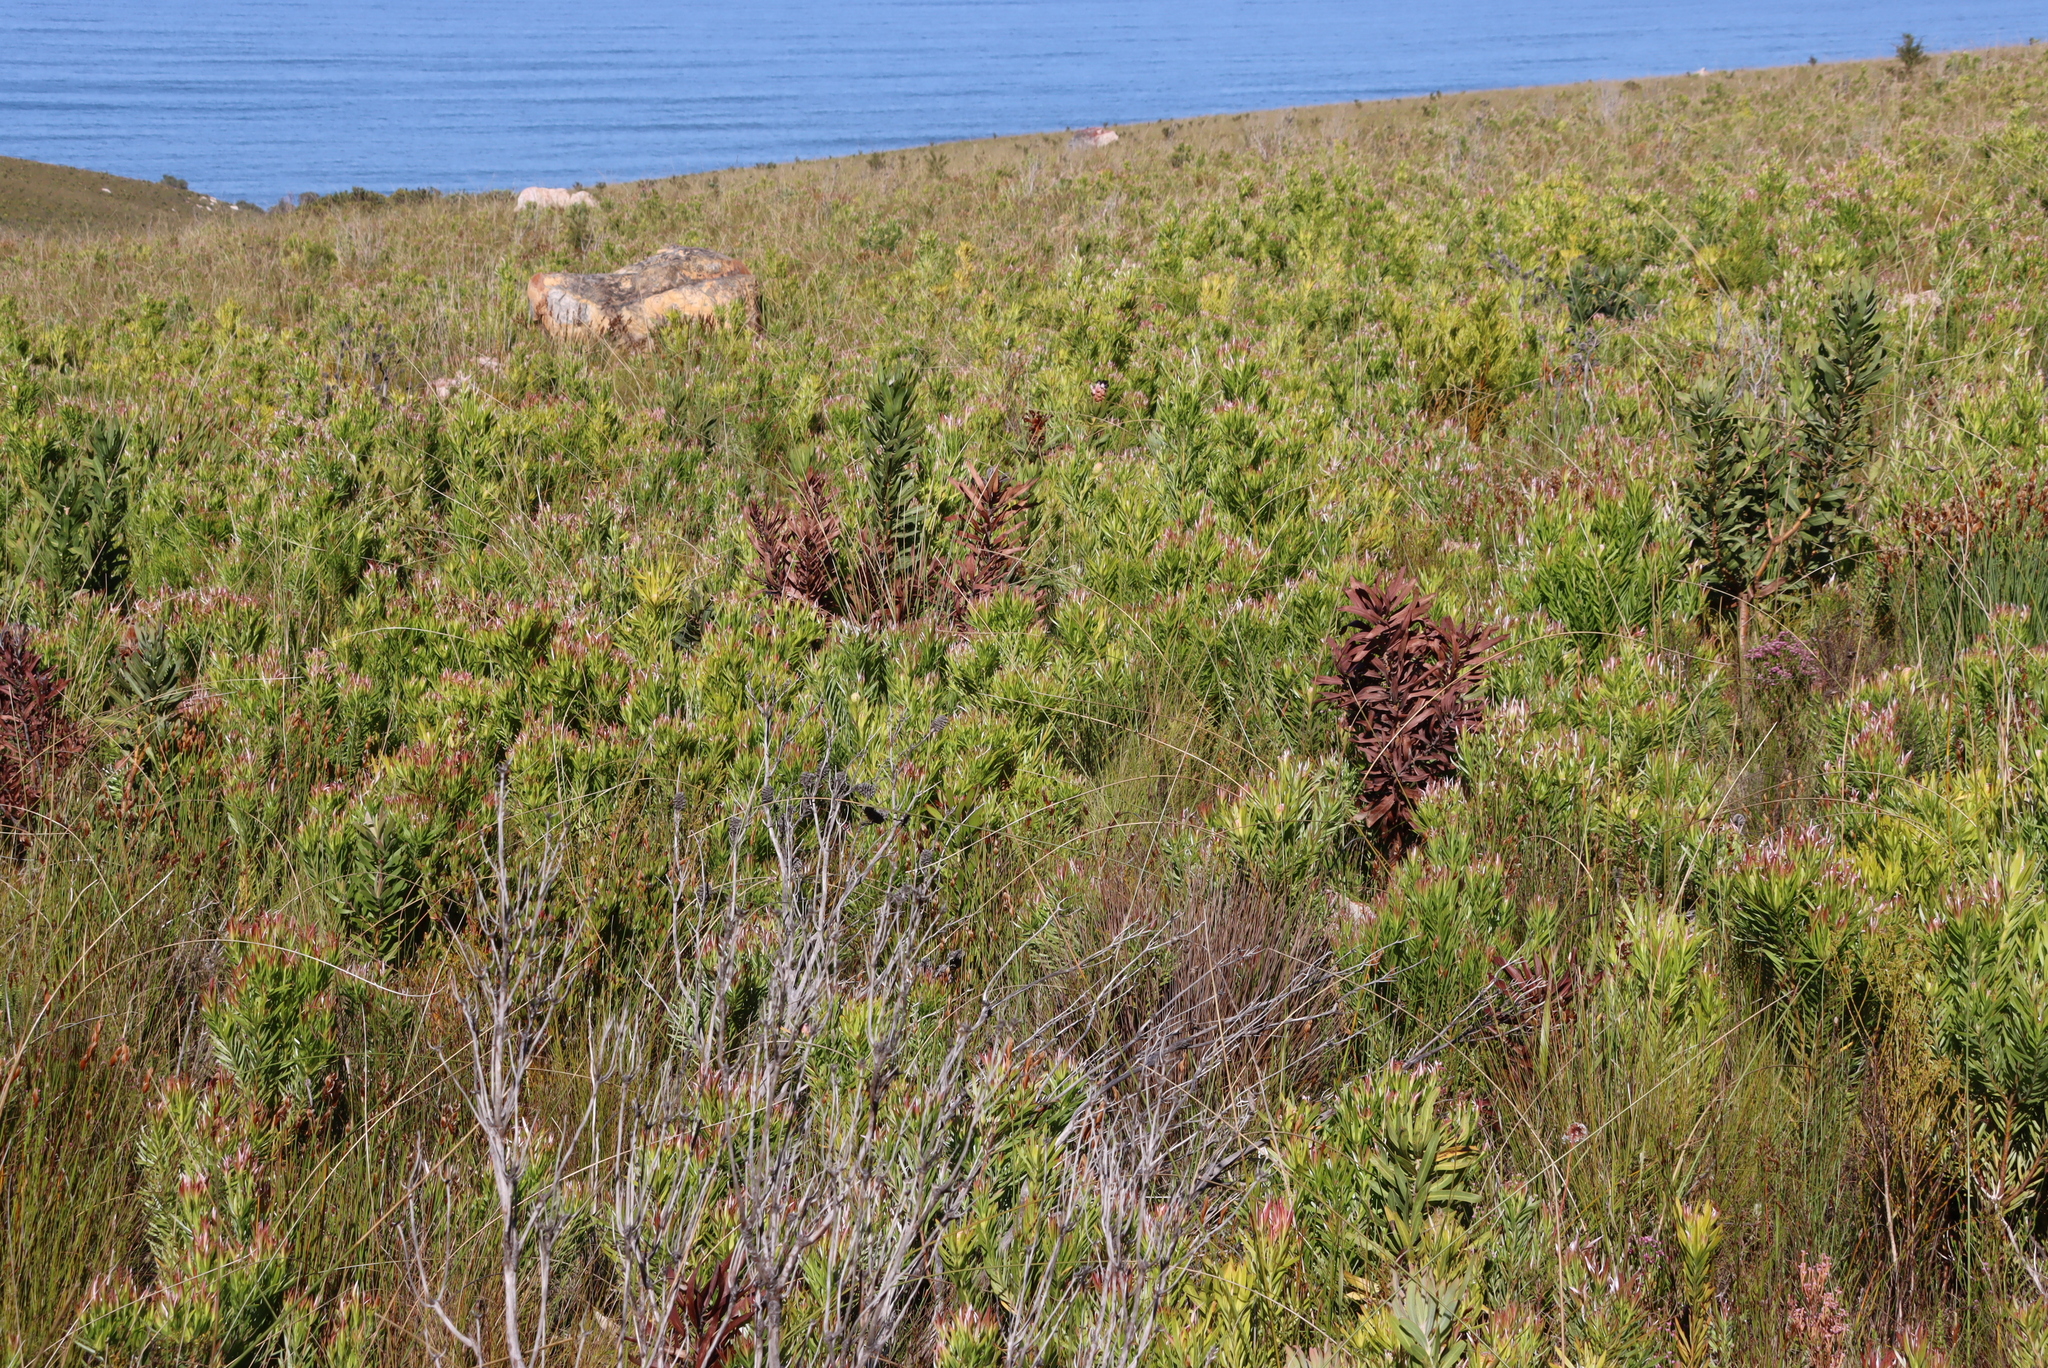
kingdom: Plantae
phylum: Tracheophyta
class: Magnoliopsida
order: Proteales
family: Proteaceae
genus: Protea
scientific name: Protea laurifolia
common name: Grey-leaf sugarbsh
